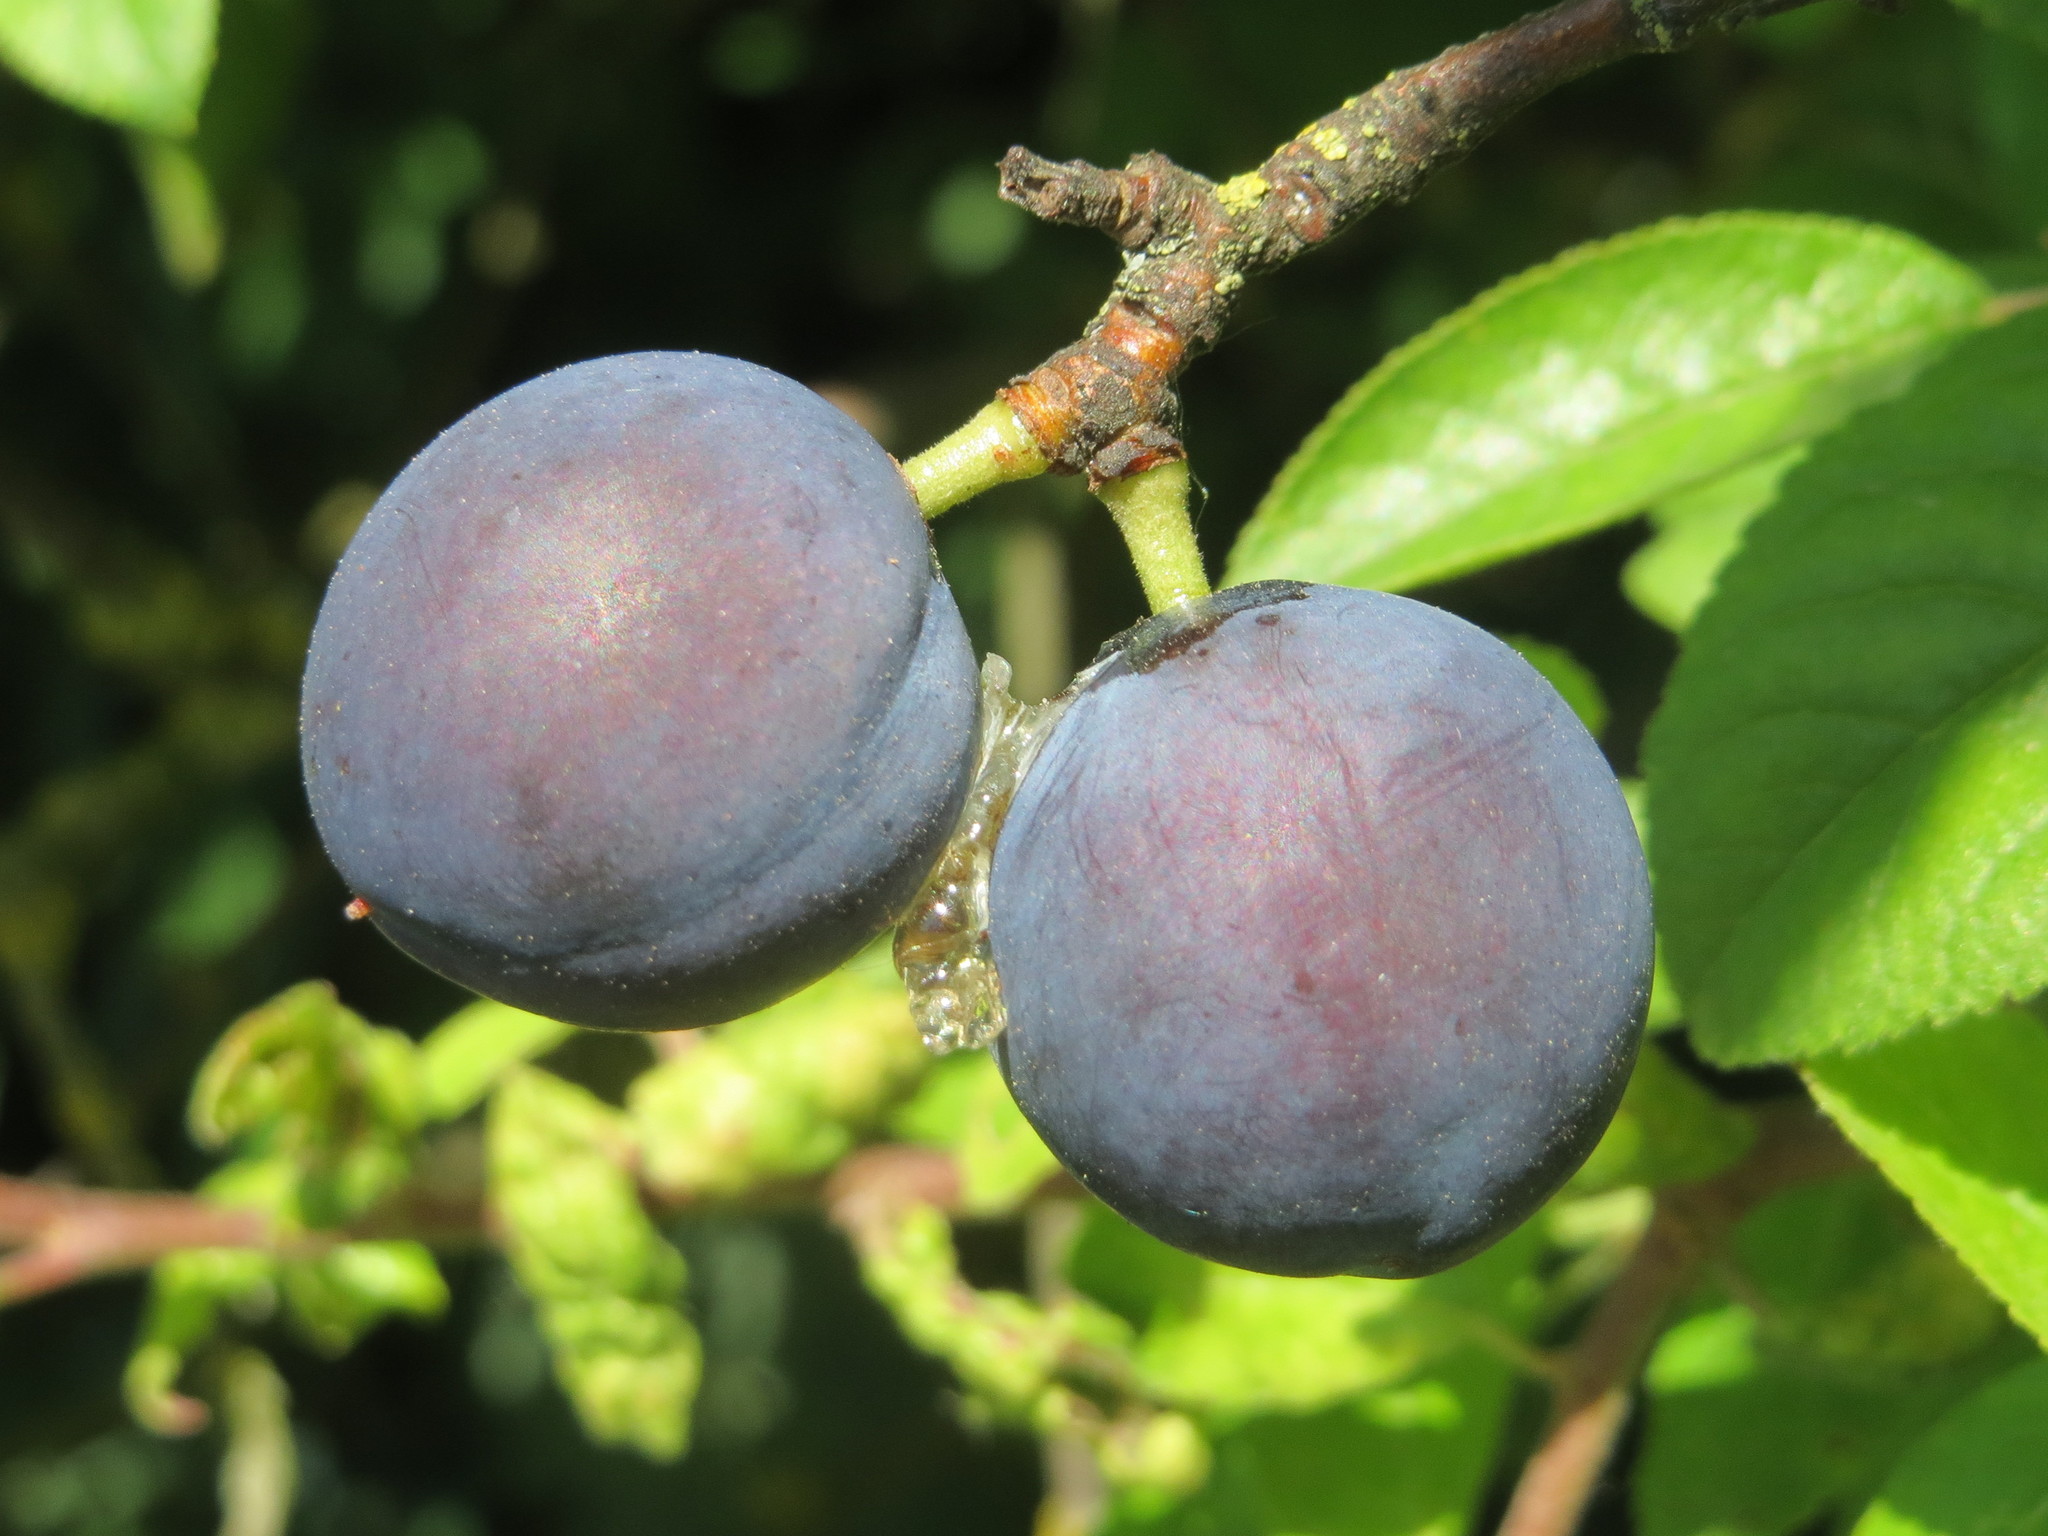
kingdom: Plantae
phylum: Tracheophyta
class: Magnoliopsida
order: Rosales
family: Rosaceae
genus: Prunus
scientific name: Prunus spinosa
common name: Blackthorn
